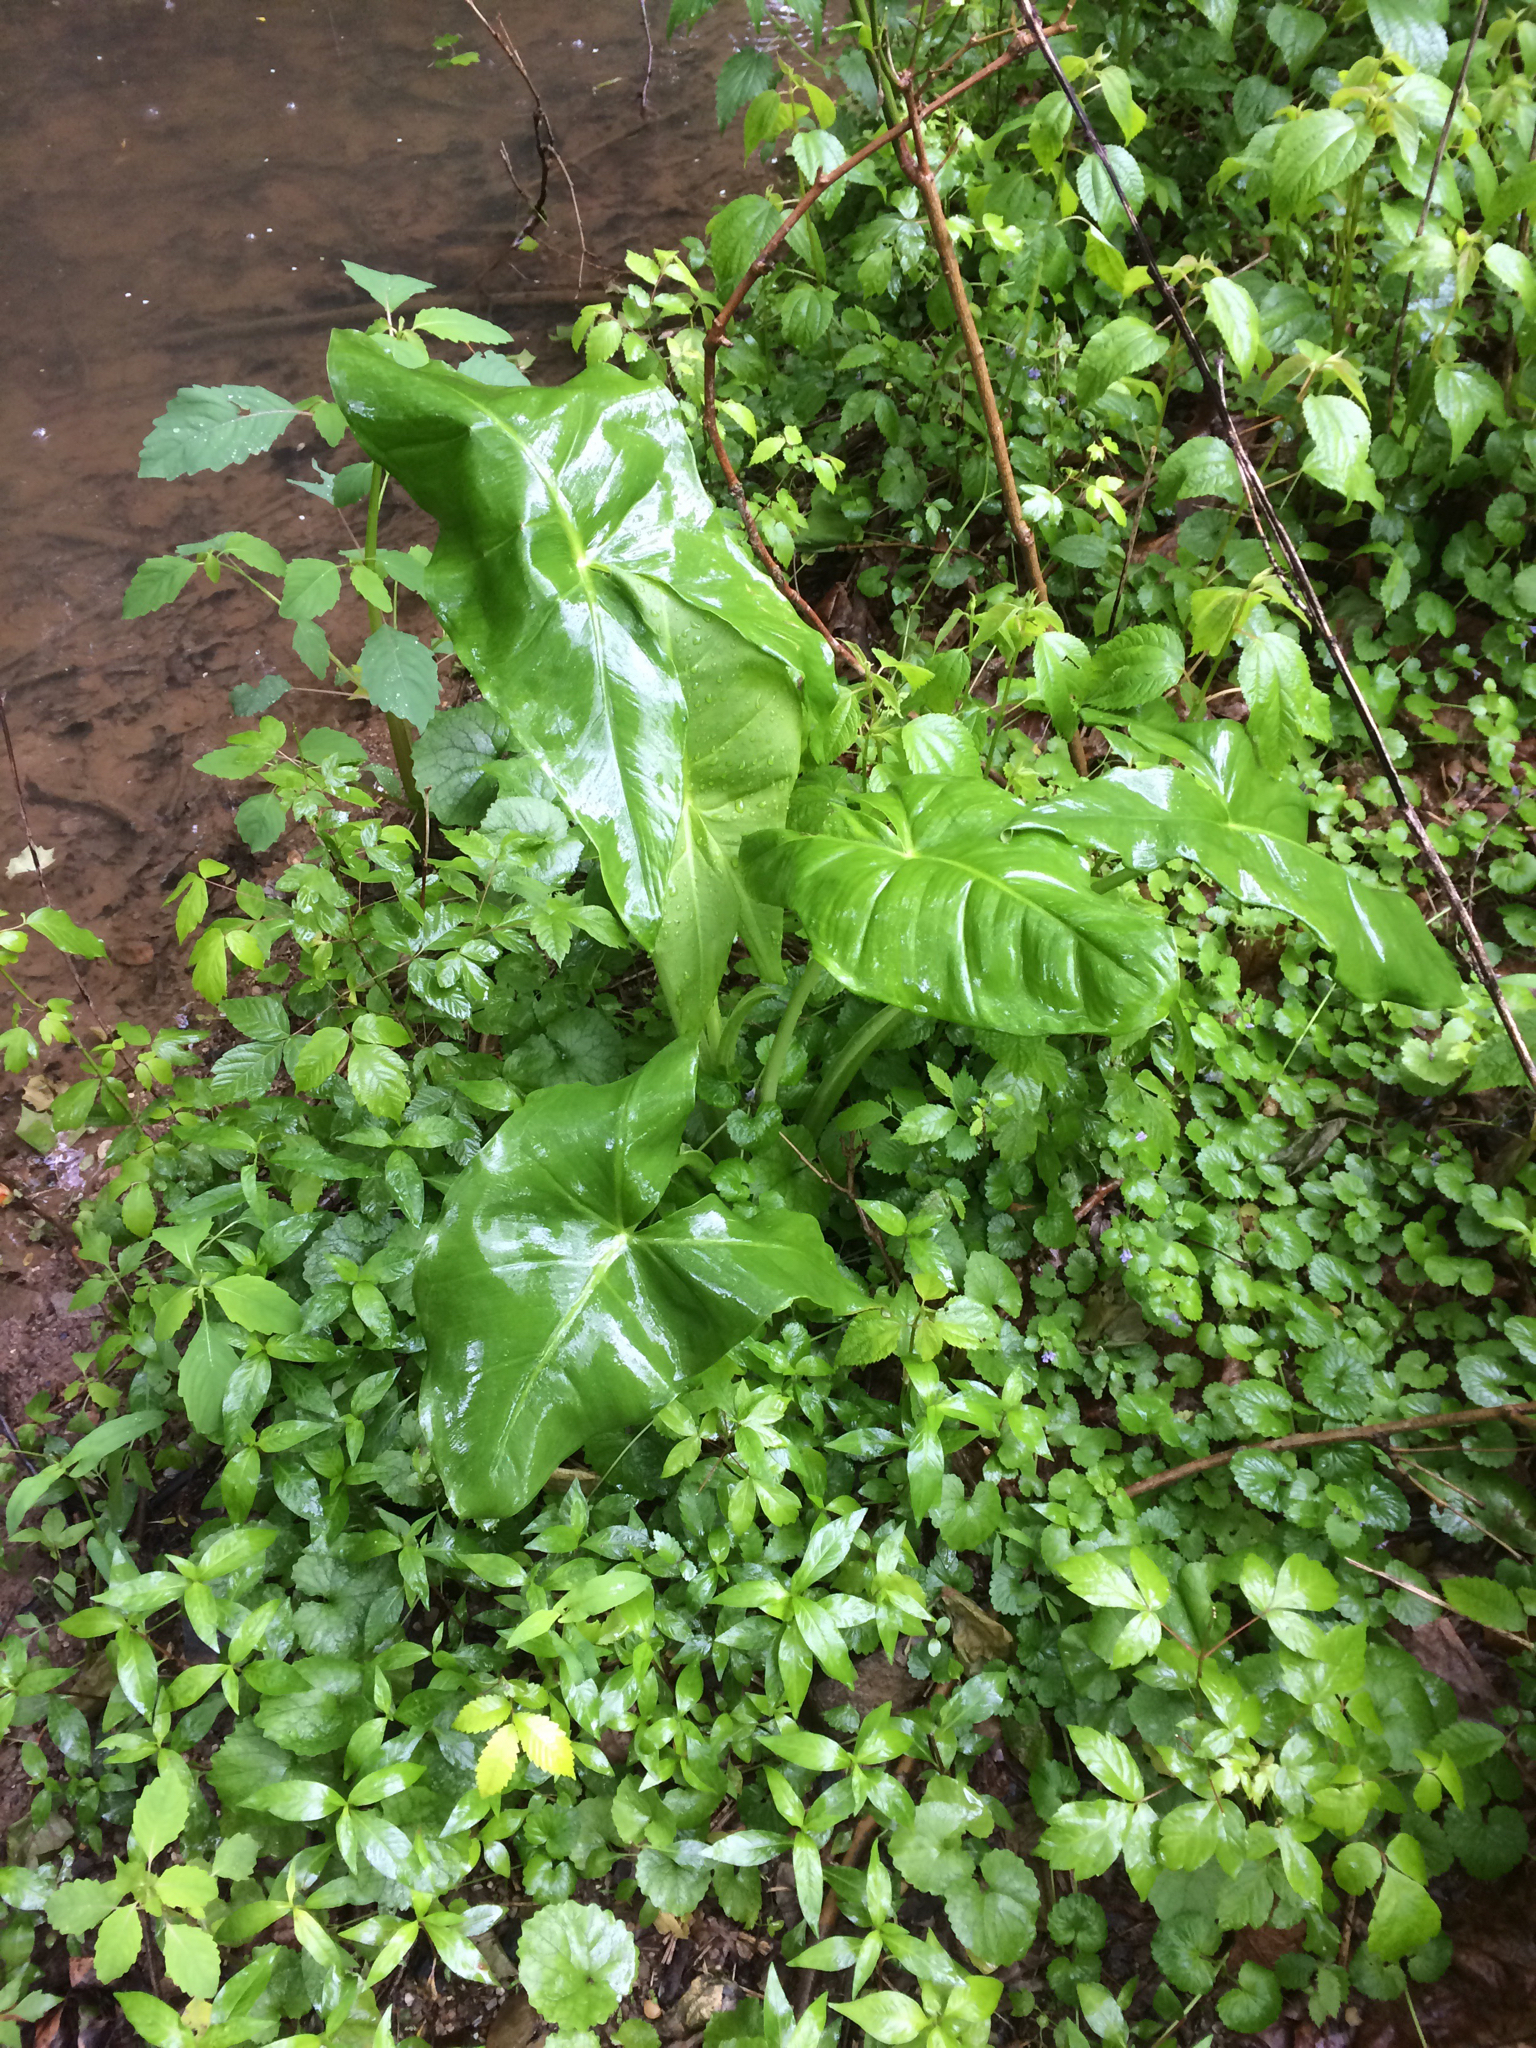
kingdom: Plantae
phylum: Tracheophyta
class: Liliopsida
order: Alismatales
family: Araceae
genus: Peltandra
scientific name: Peltandra virginica
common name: Arrow arum
